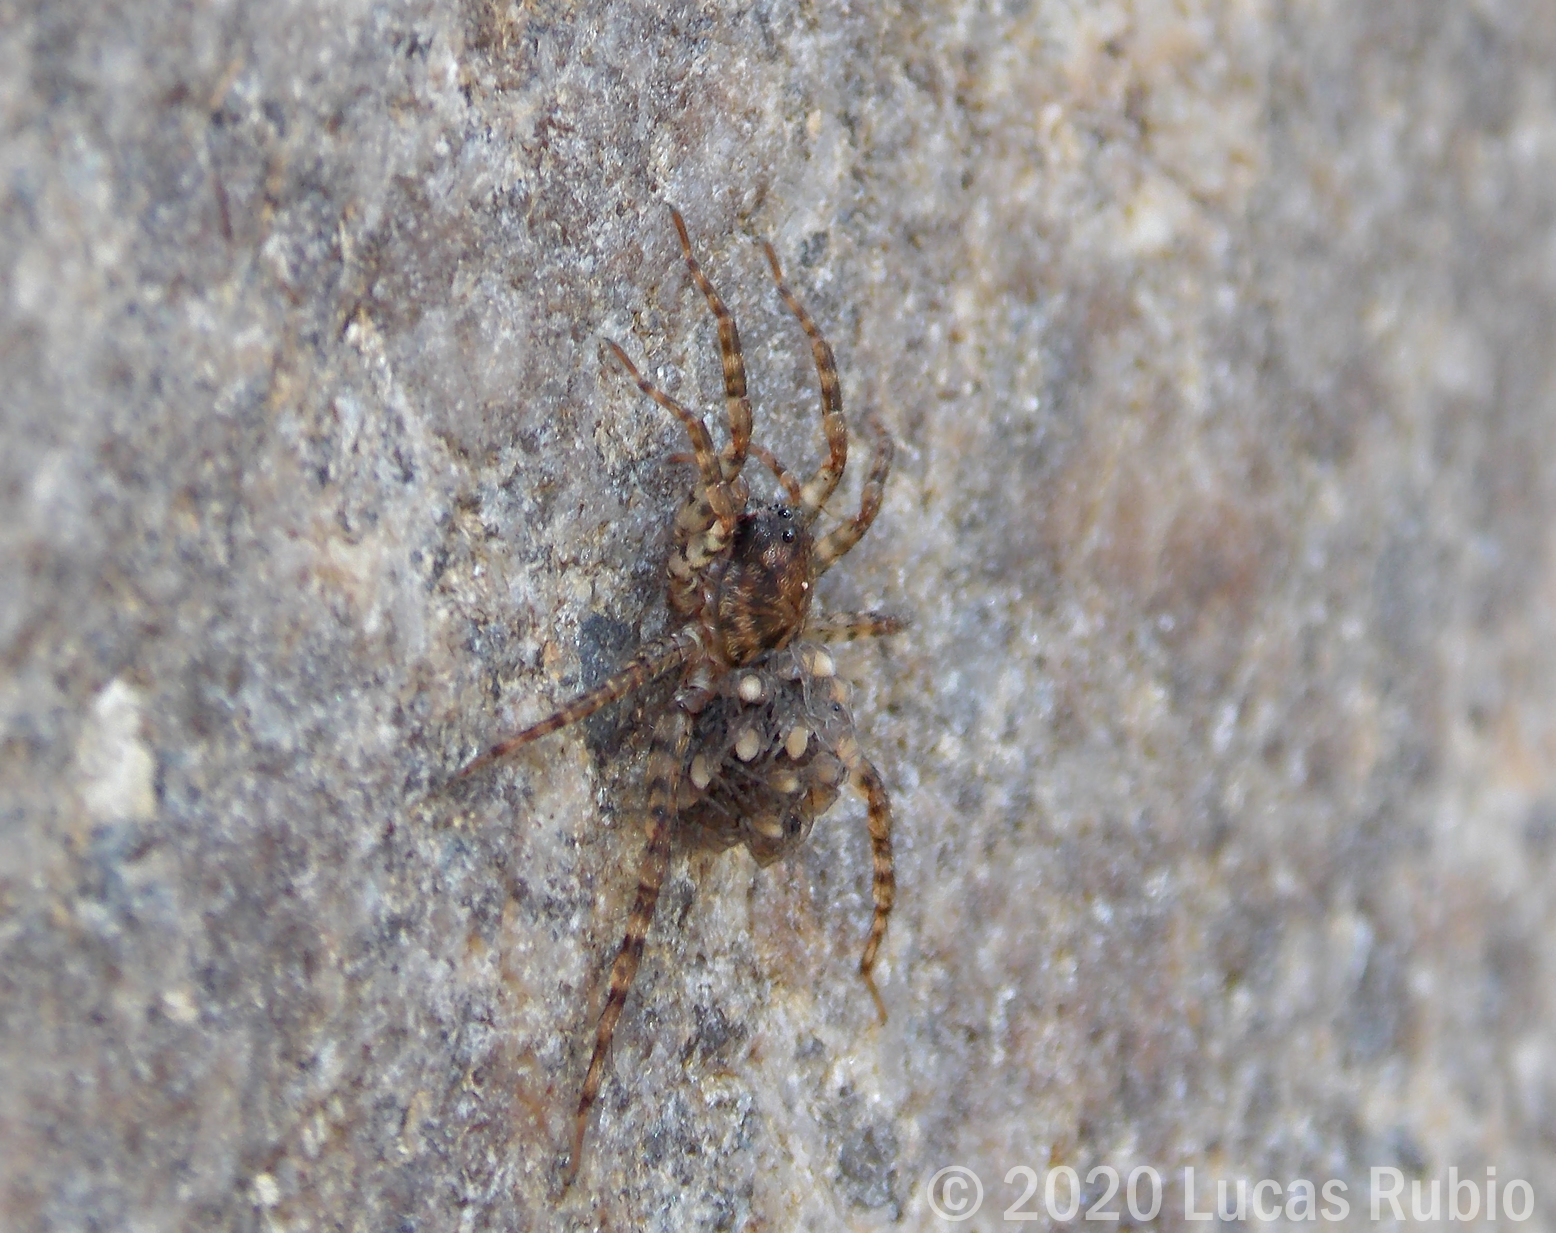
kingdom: Animalia
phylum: Arthropoda
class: Arachnida
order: Araneae
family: Lycosidae
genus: Paratrochosina
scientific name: Paratrochosina amica
